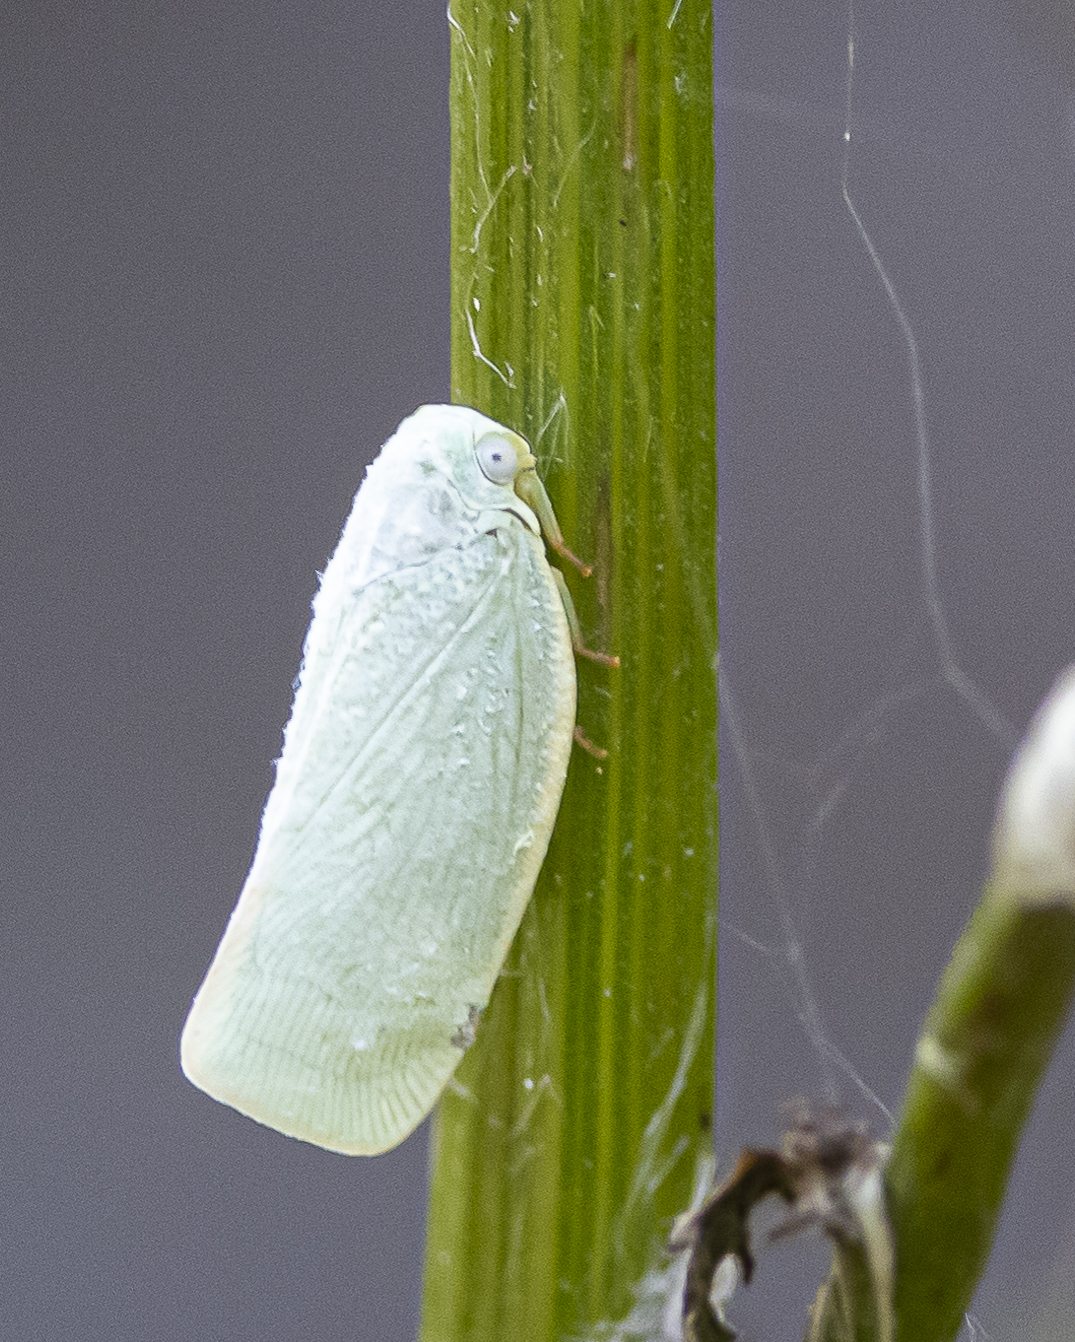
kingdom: Animalia
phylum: Arthropoda
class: Insecta
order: Hemiptera
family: Flatidae
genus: Flatormenis
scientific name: Flatormenis proxima
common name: Northern flatid planthopper
